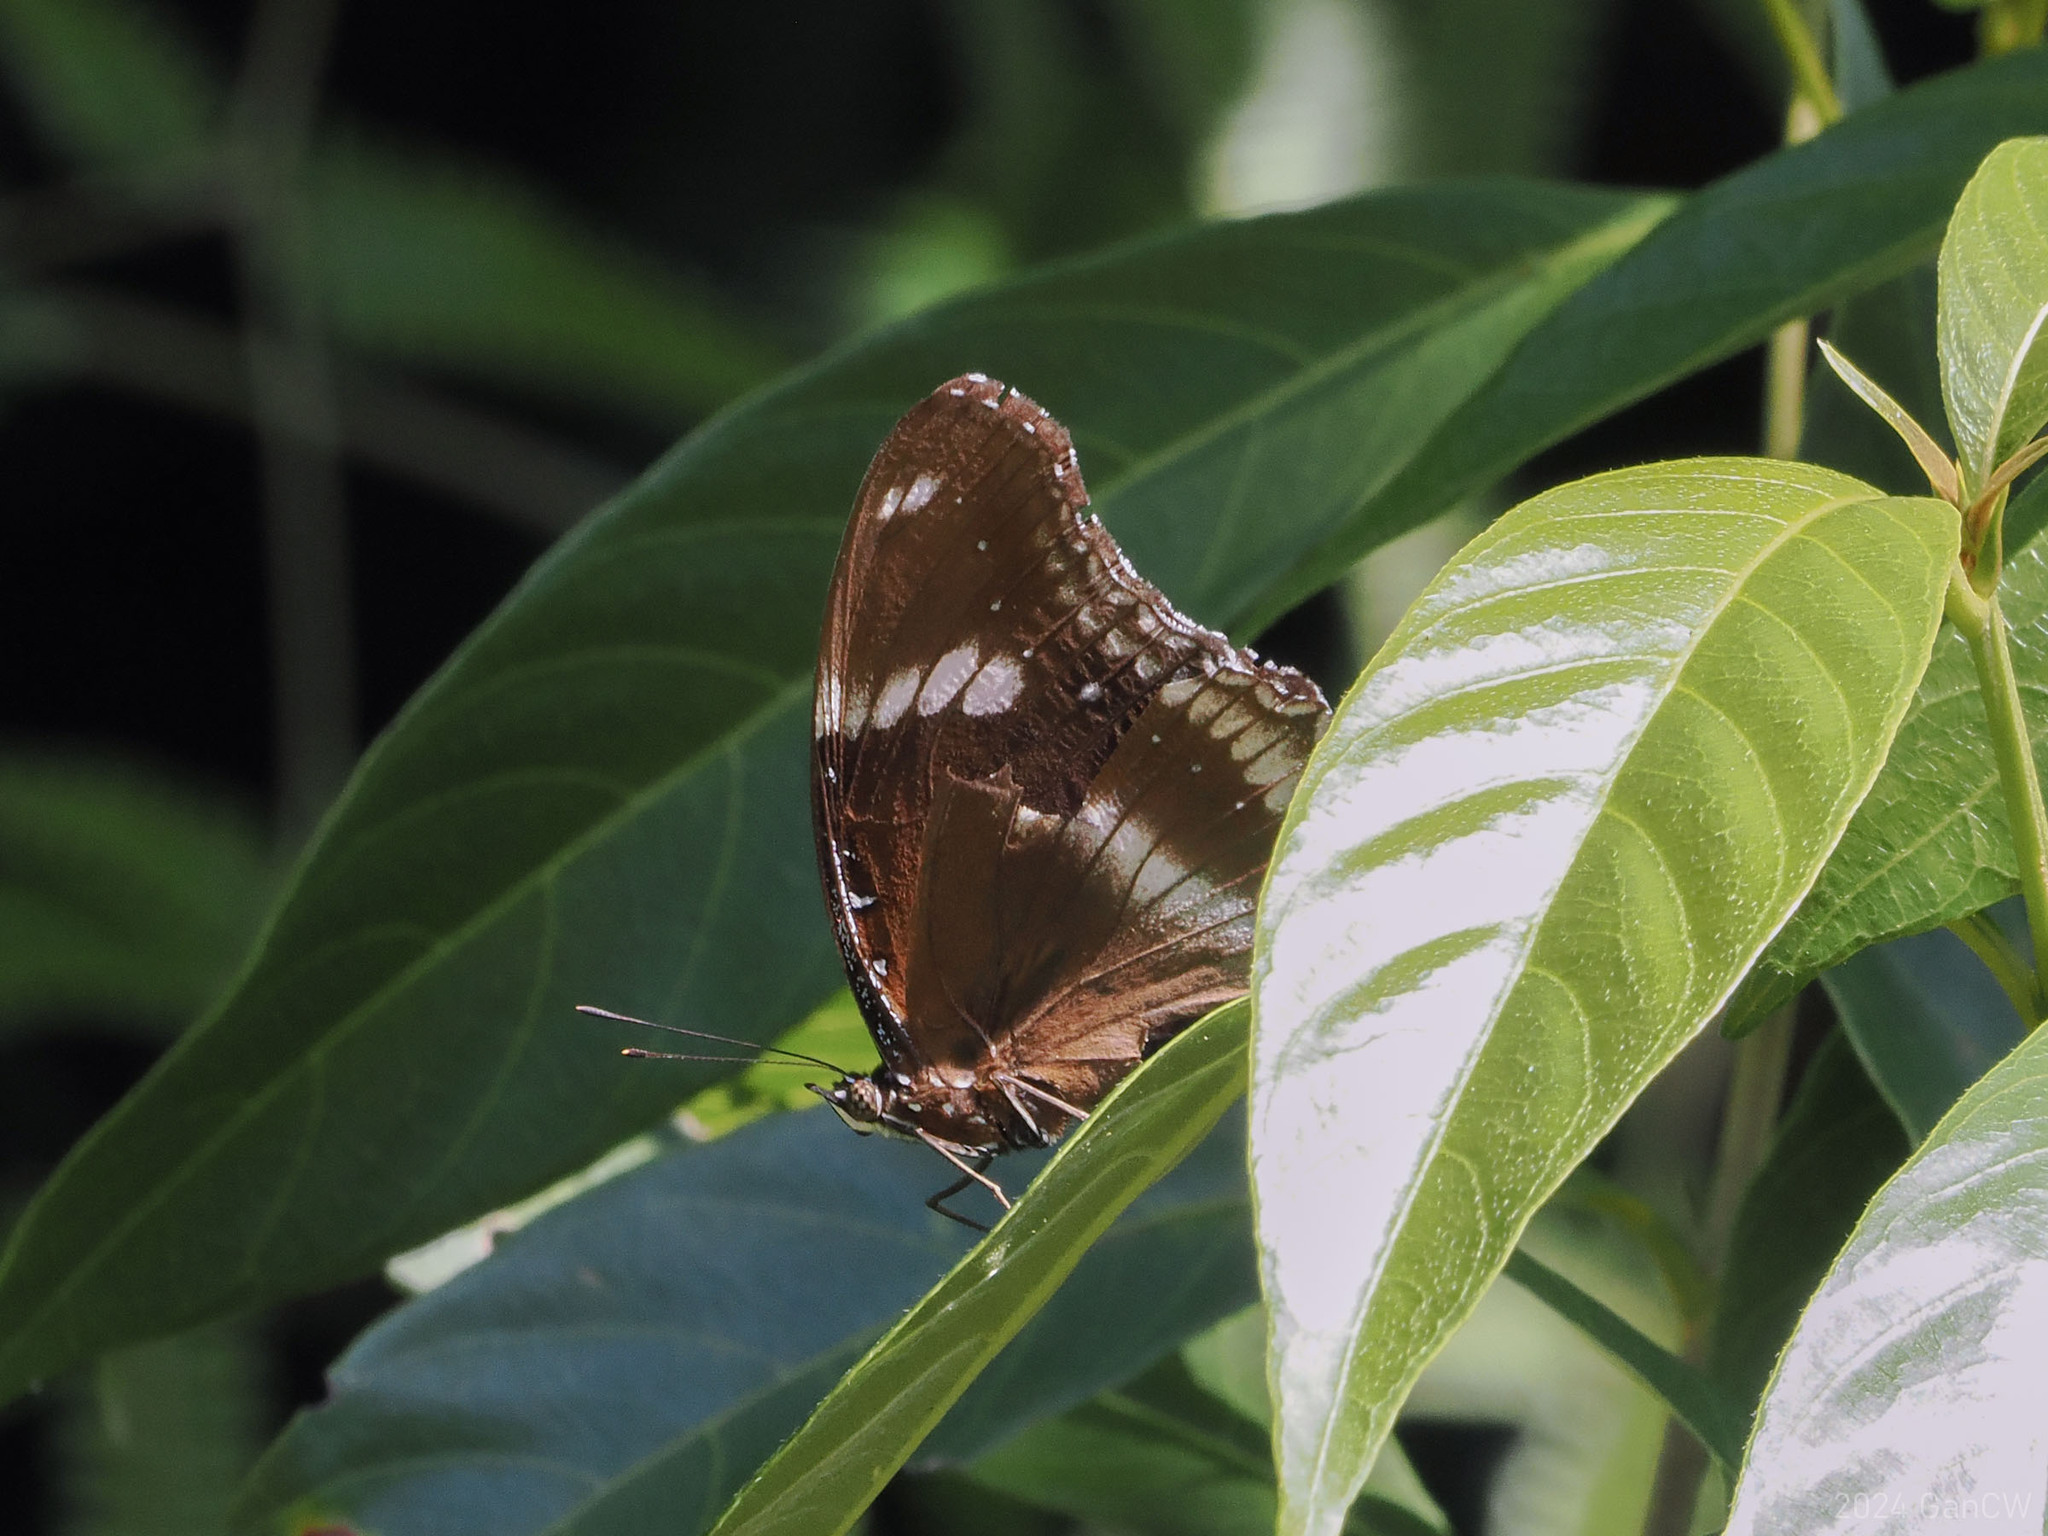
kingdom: Animalia
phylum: Arthropoda
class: Insecta
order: Lepidoptera
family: Nymphalidae
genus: Hypolimnas
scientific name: Hypolimnas bolina
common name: Great eggfly
